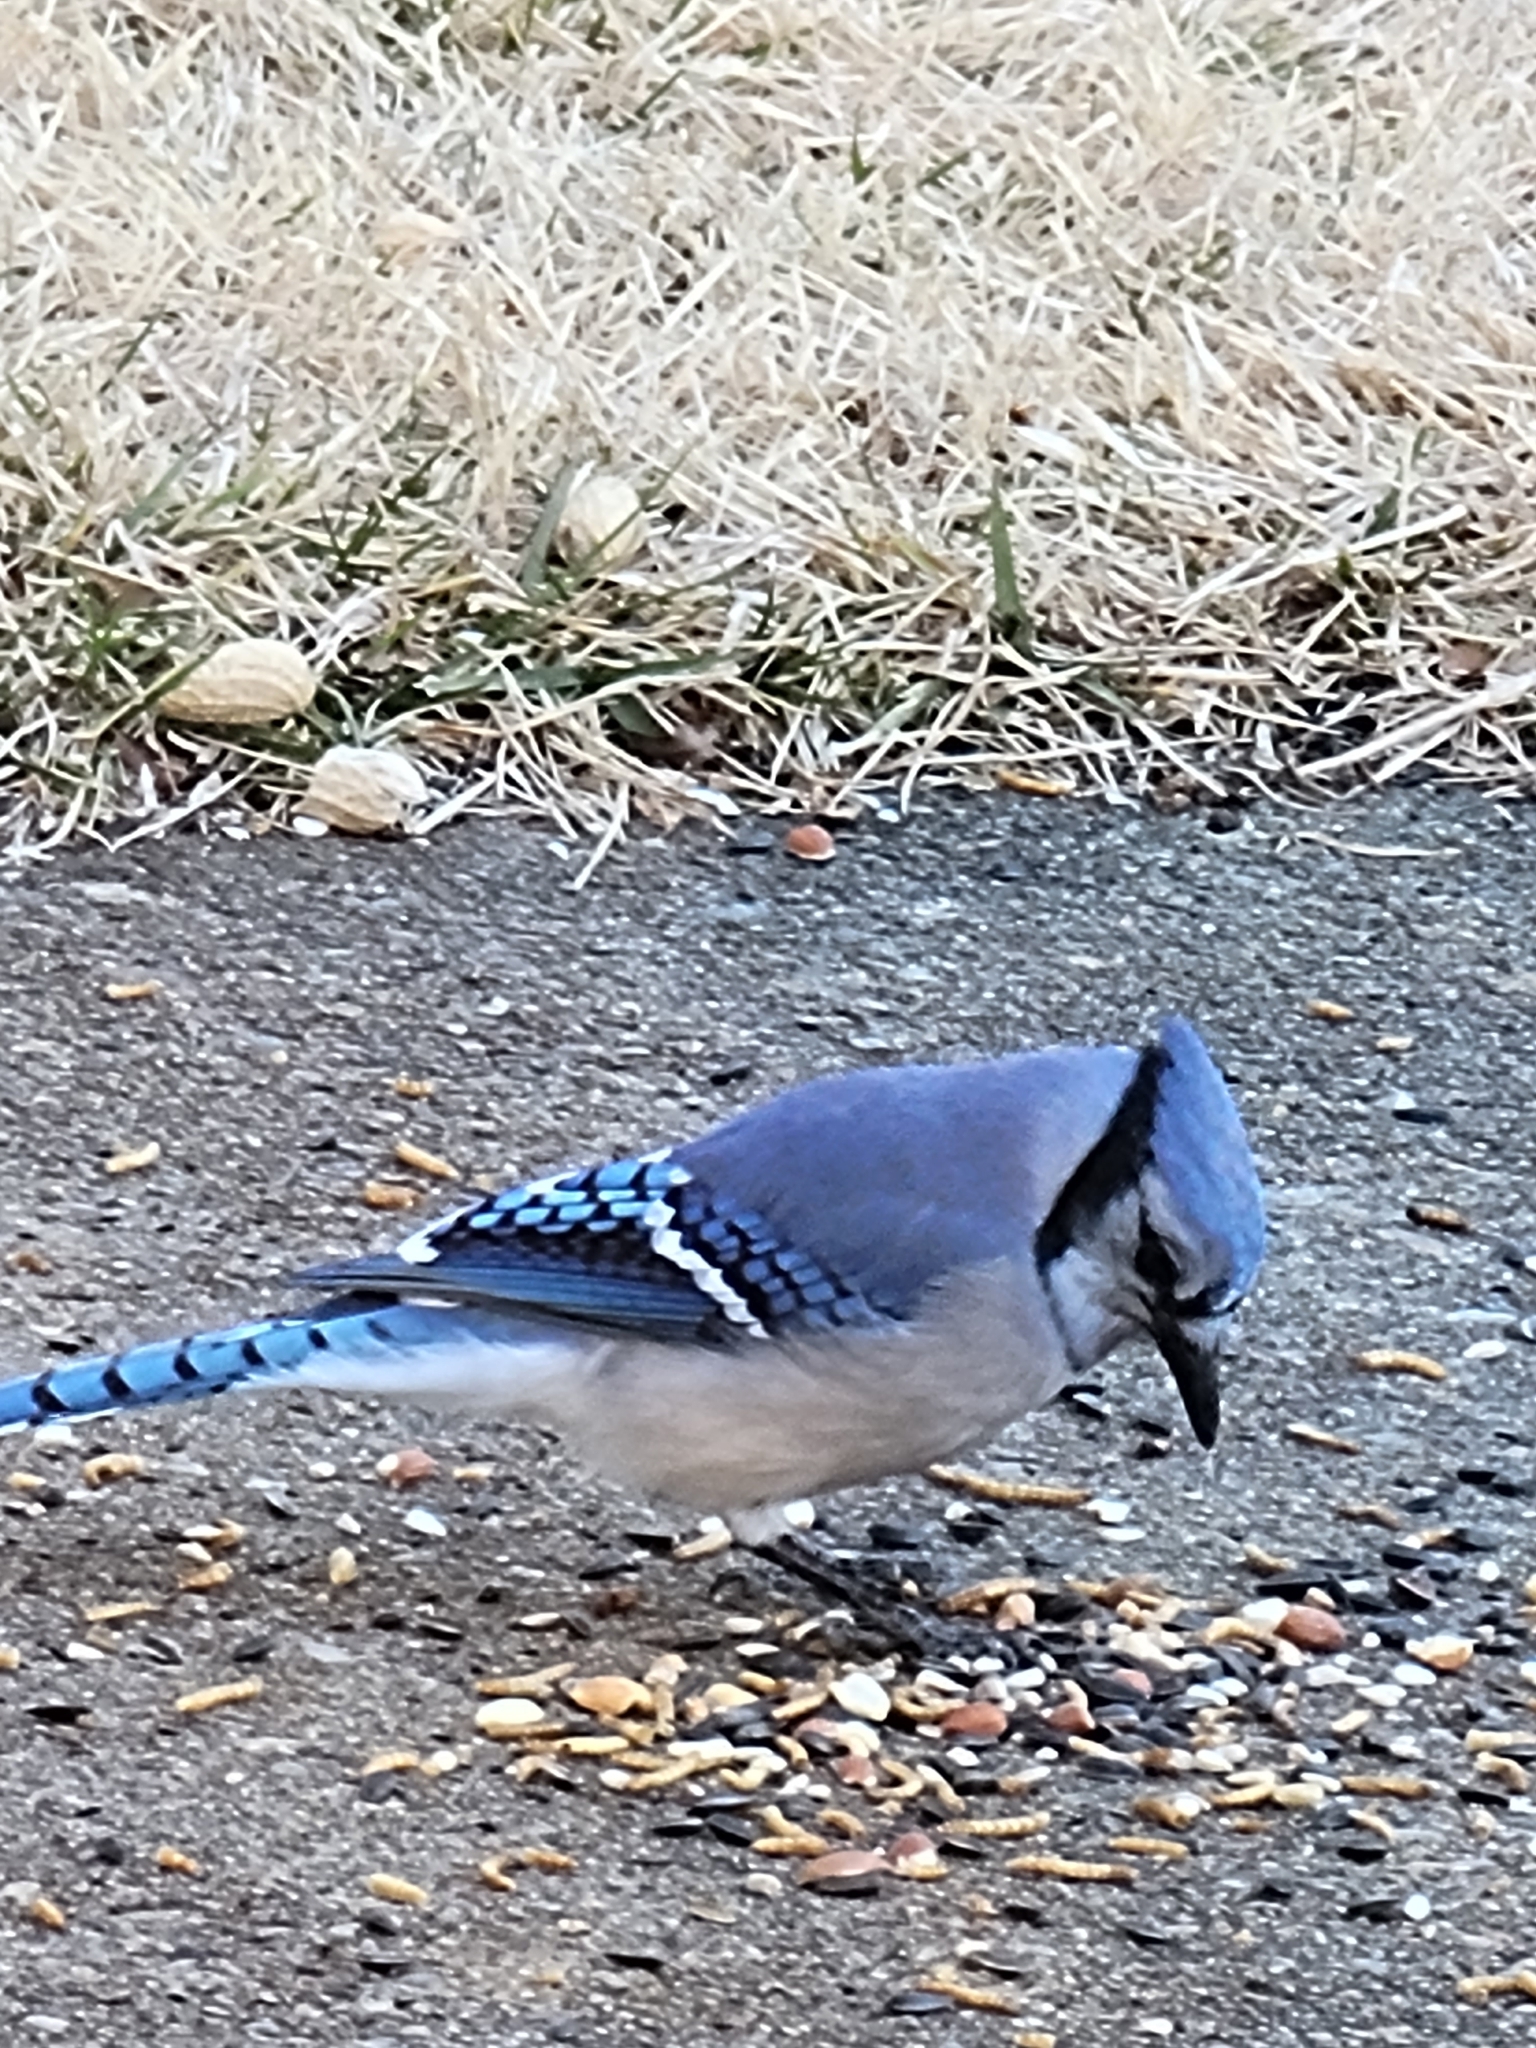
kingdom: Animalia
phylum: Chordata
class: Aves
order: Passeriformes
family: Corvidae
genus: Cyanocitta
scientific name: Cyanocitta cristata
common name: Blue jay
